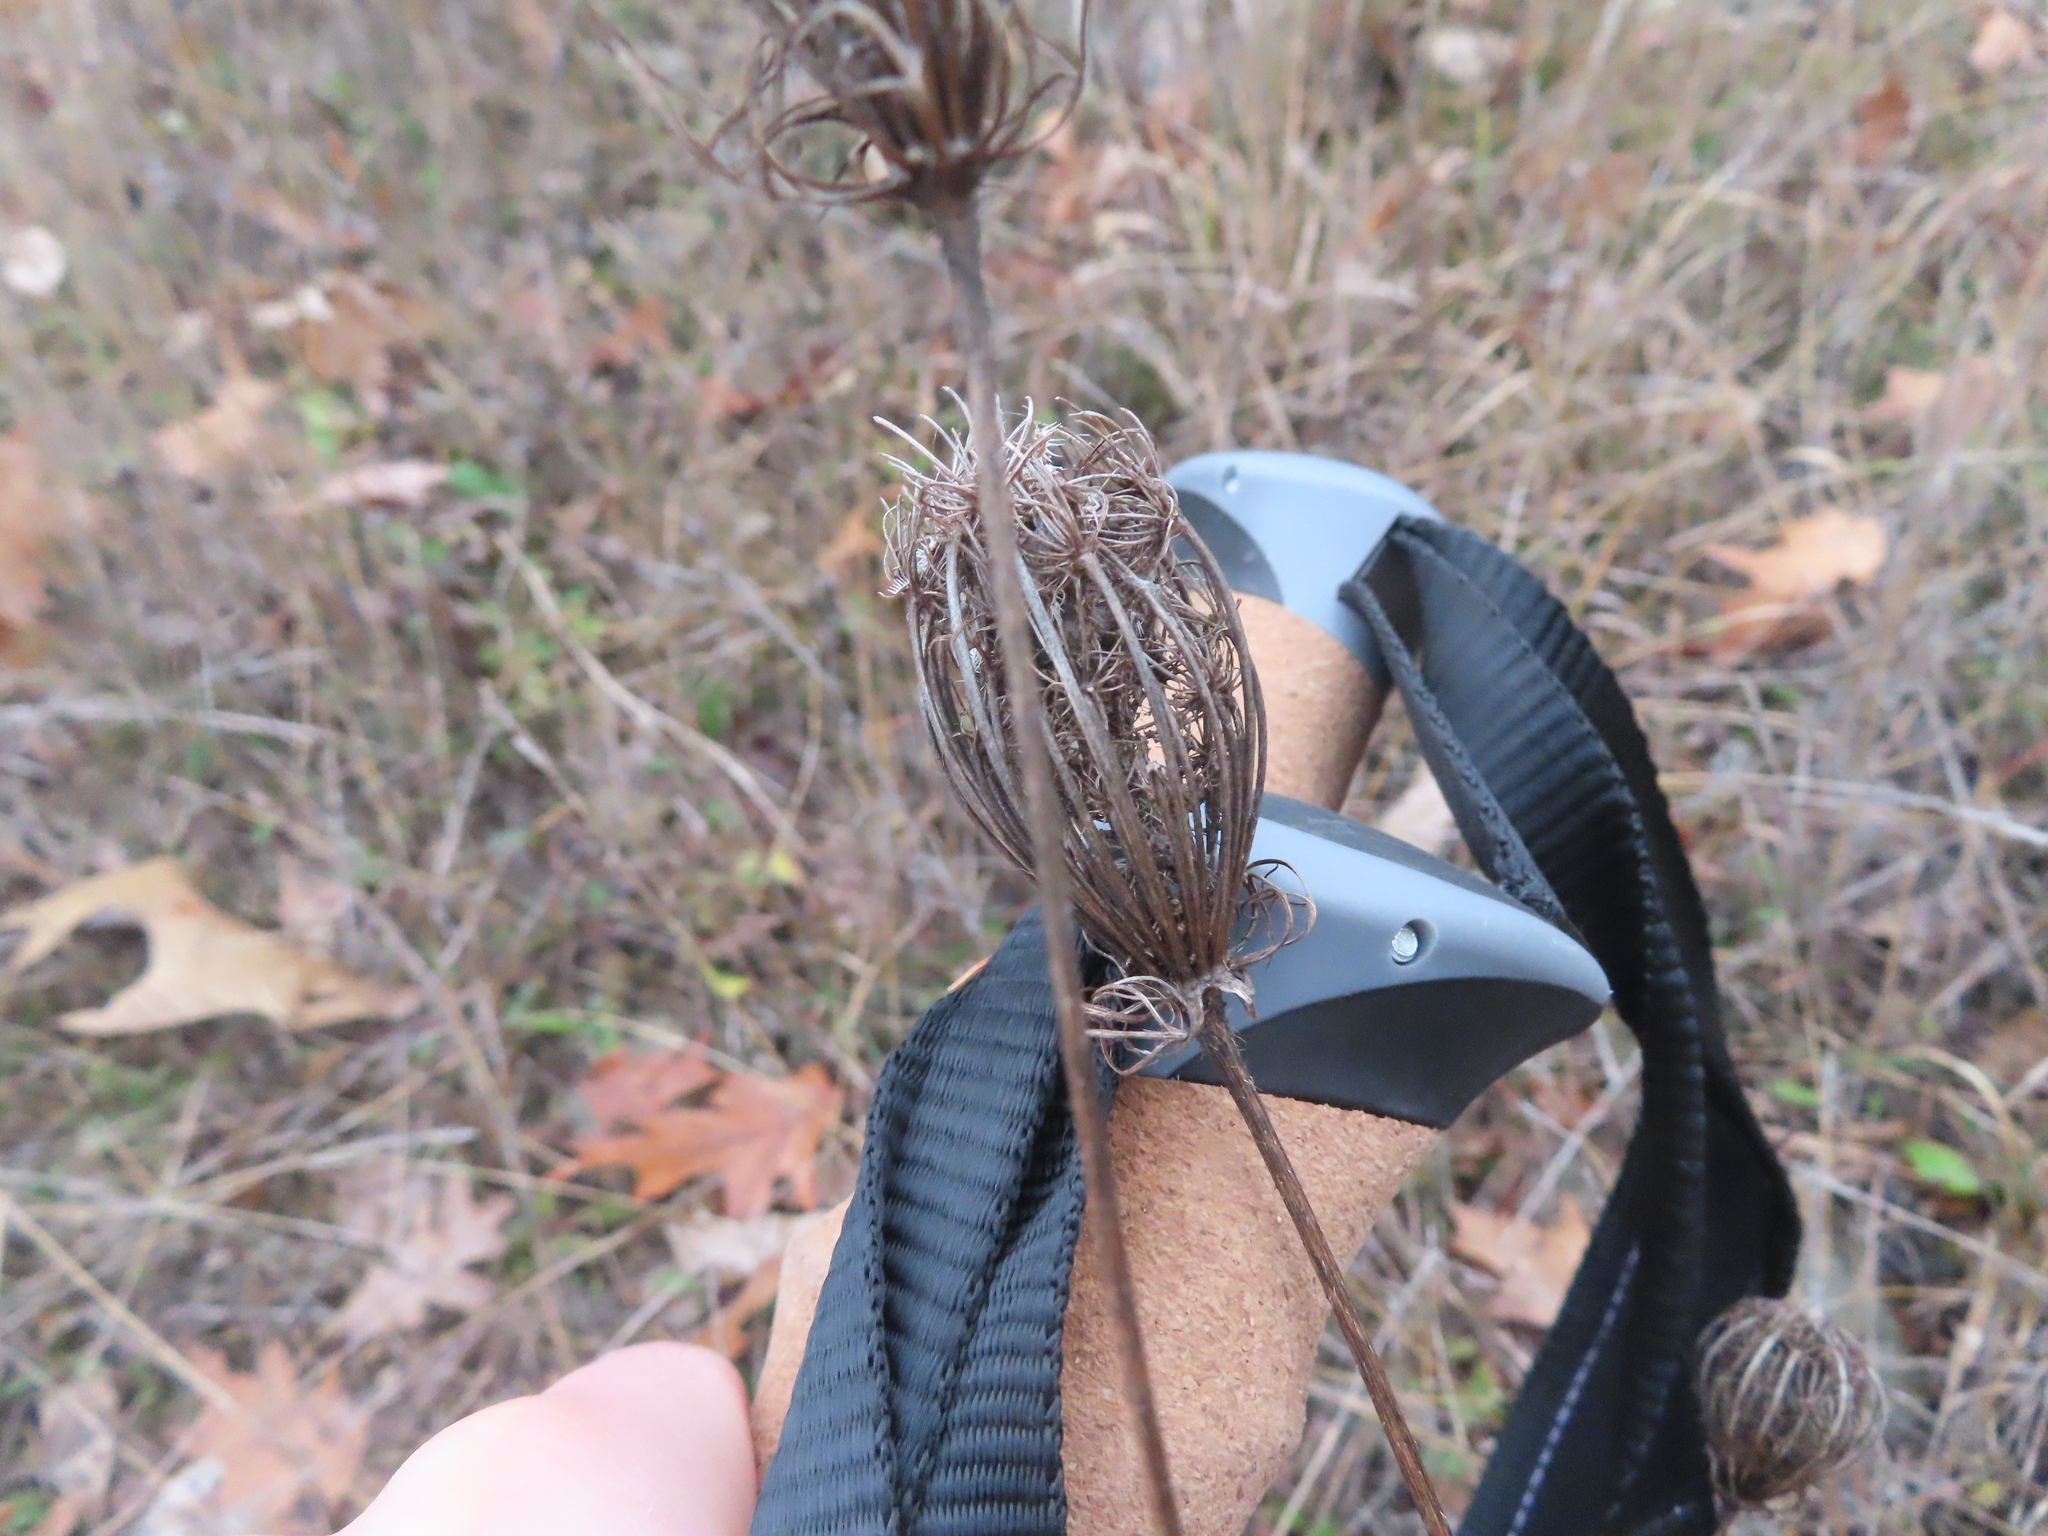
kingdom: Plantae
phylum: Tracheophyta
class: Magnoliopsida
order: Apiales
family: Apiaceae
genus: Daucus
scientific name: Daucus carota
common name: Wild carrot
